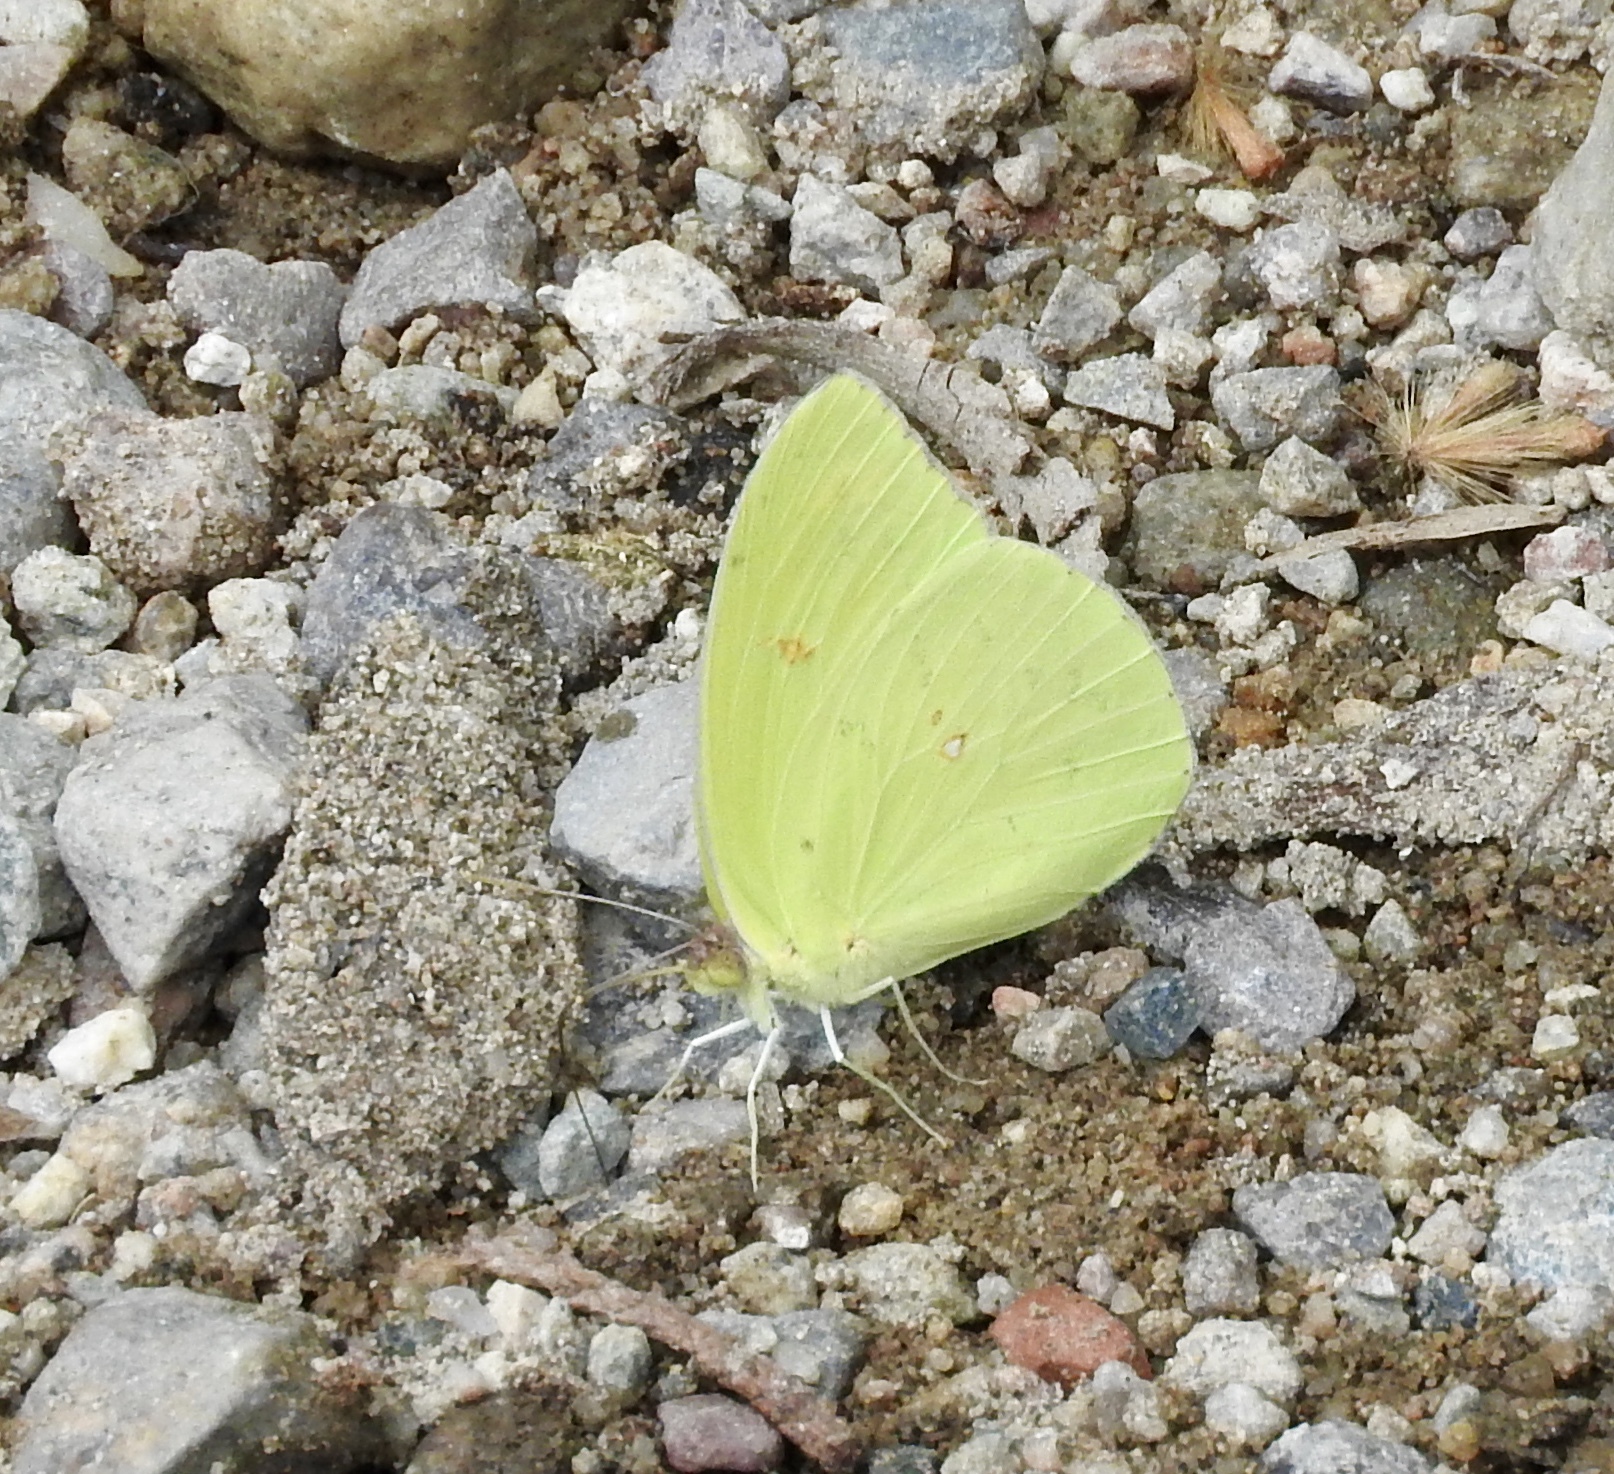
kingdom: Animalia
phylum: Arthropoda
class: Insecta
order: Lepidoptera
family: Pieridae
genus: Phoebis
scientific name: Phoebis sennae
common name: Cloudless sulphur
